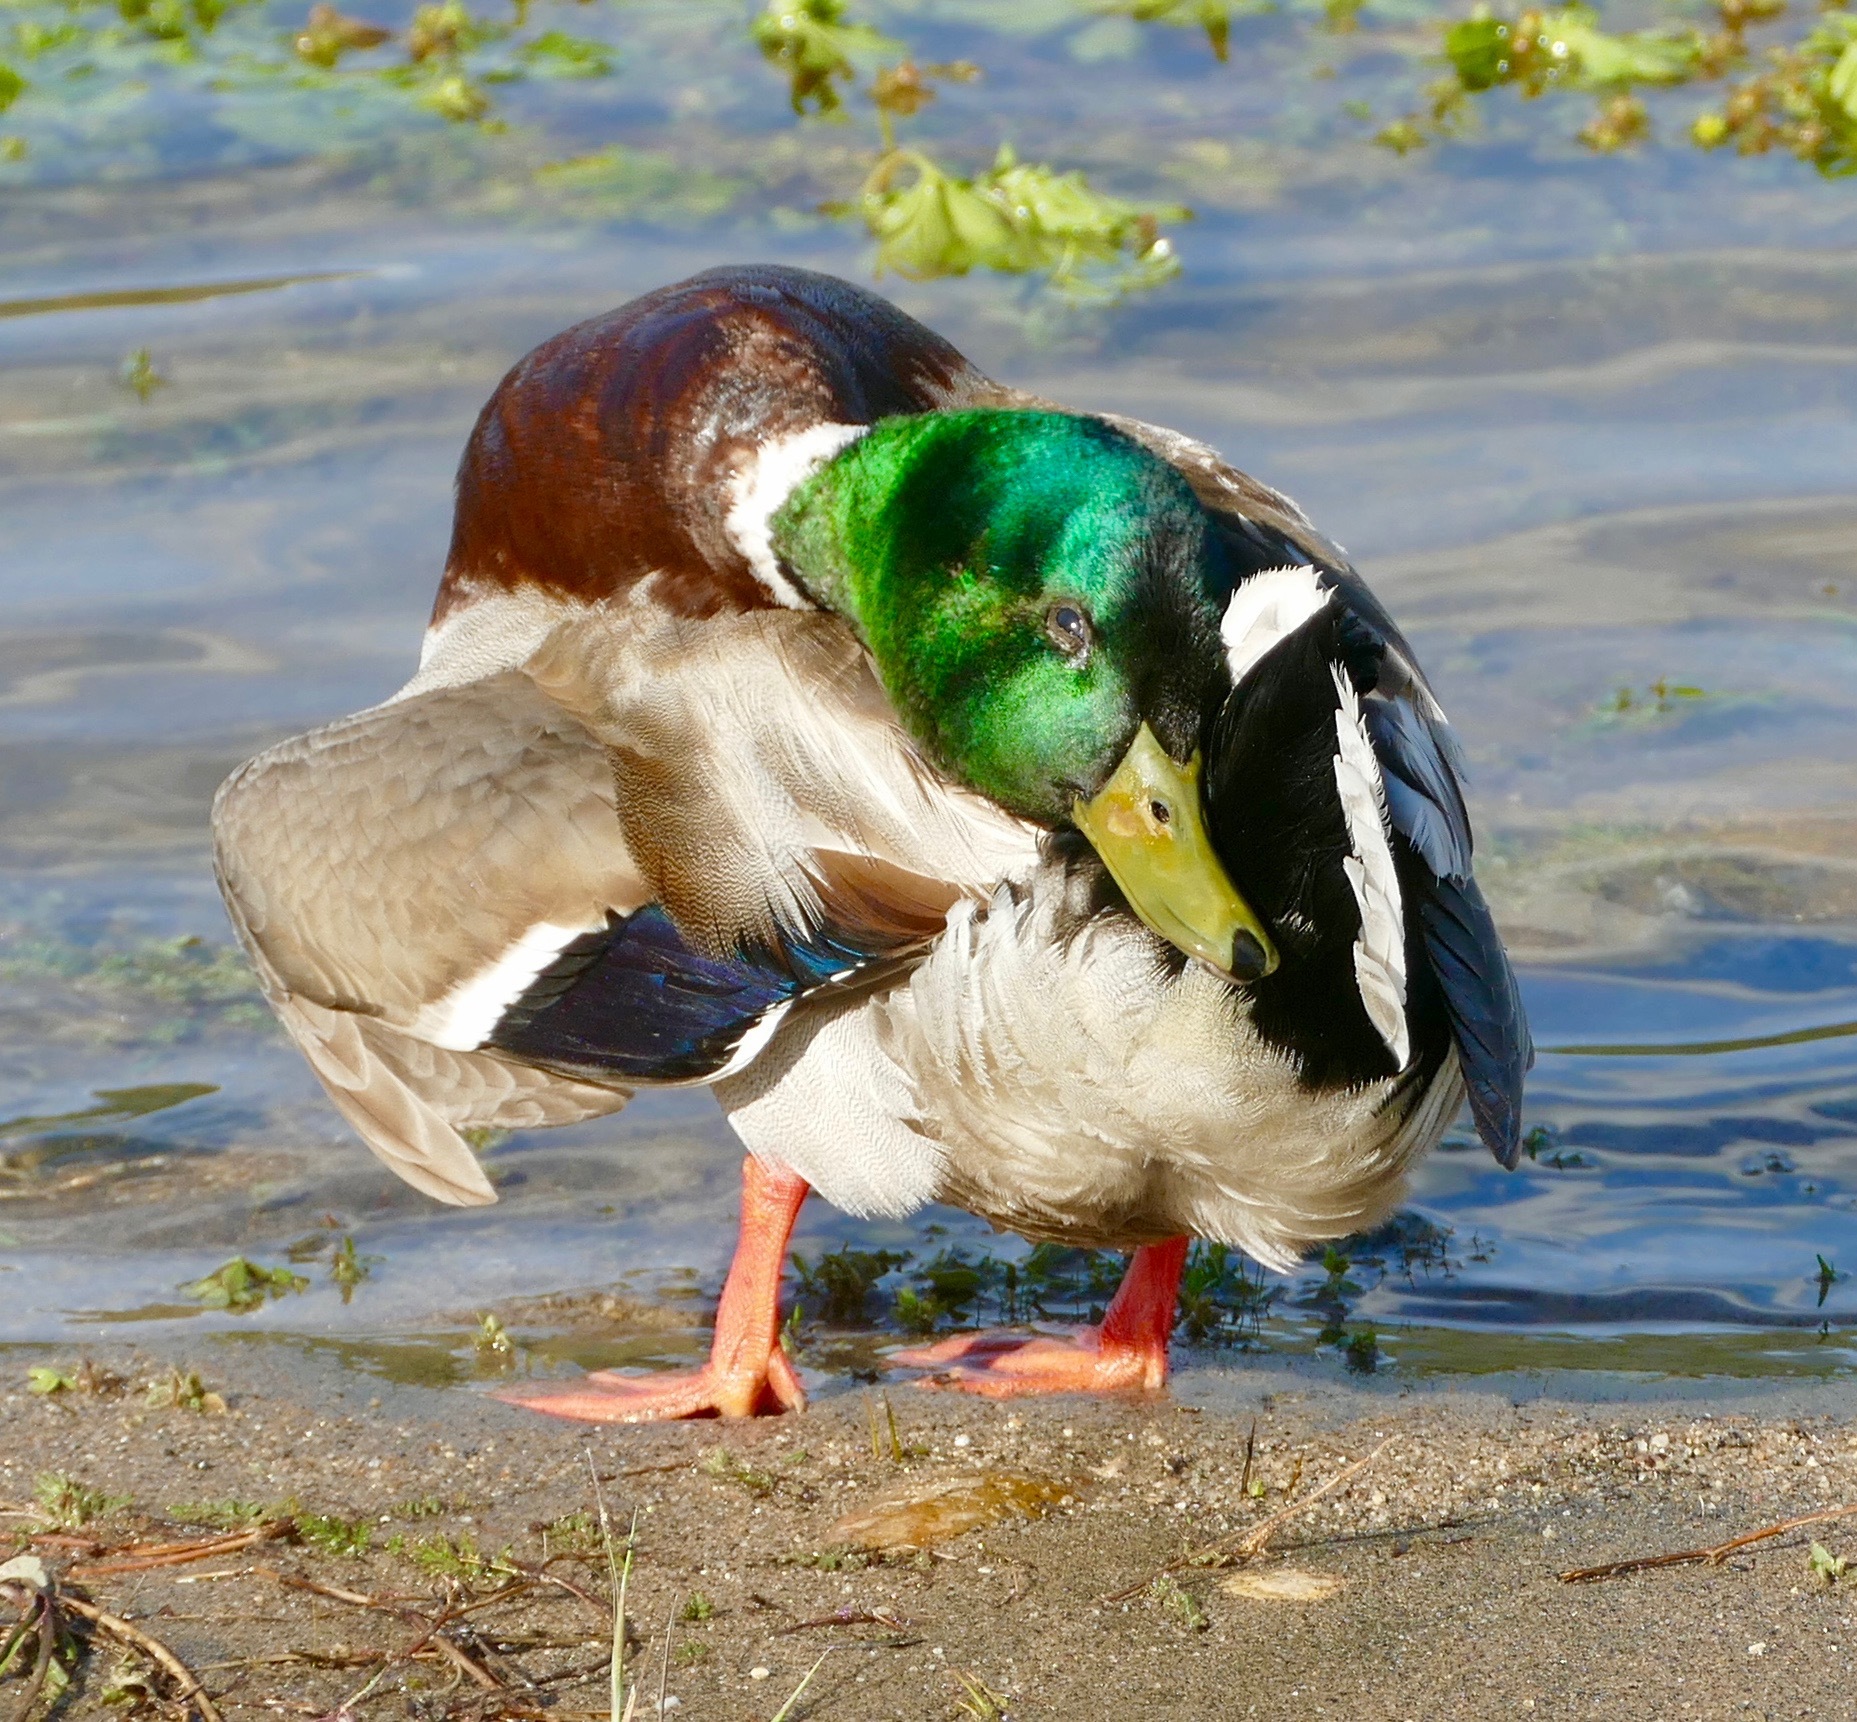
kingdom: Animalia
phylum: Chordata
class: Aves
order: Anseriformes
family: Anatidae
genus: Anas
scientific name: Anas platyrhynchos
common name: Mallard
